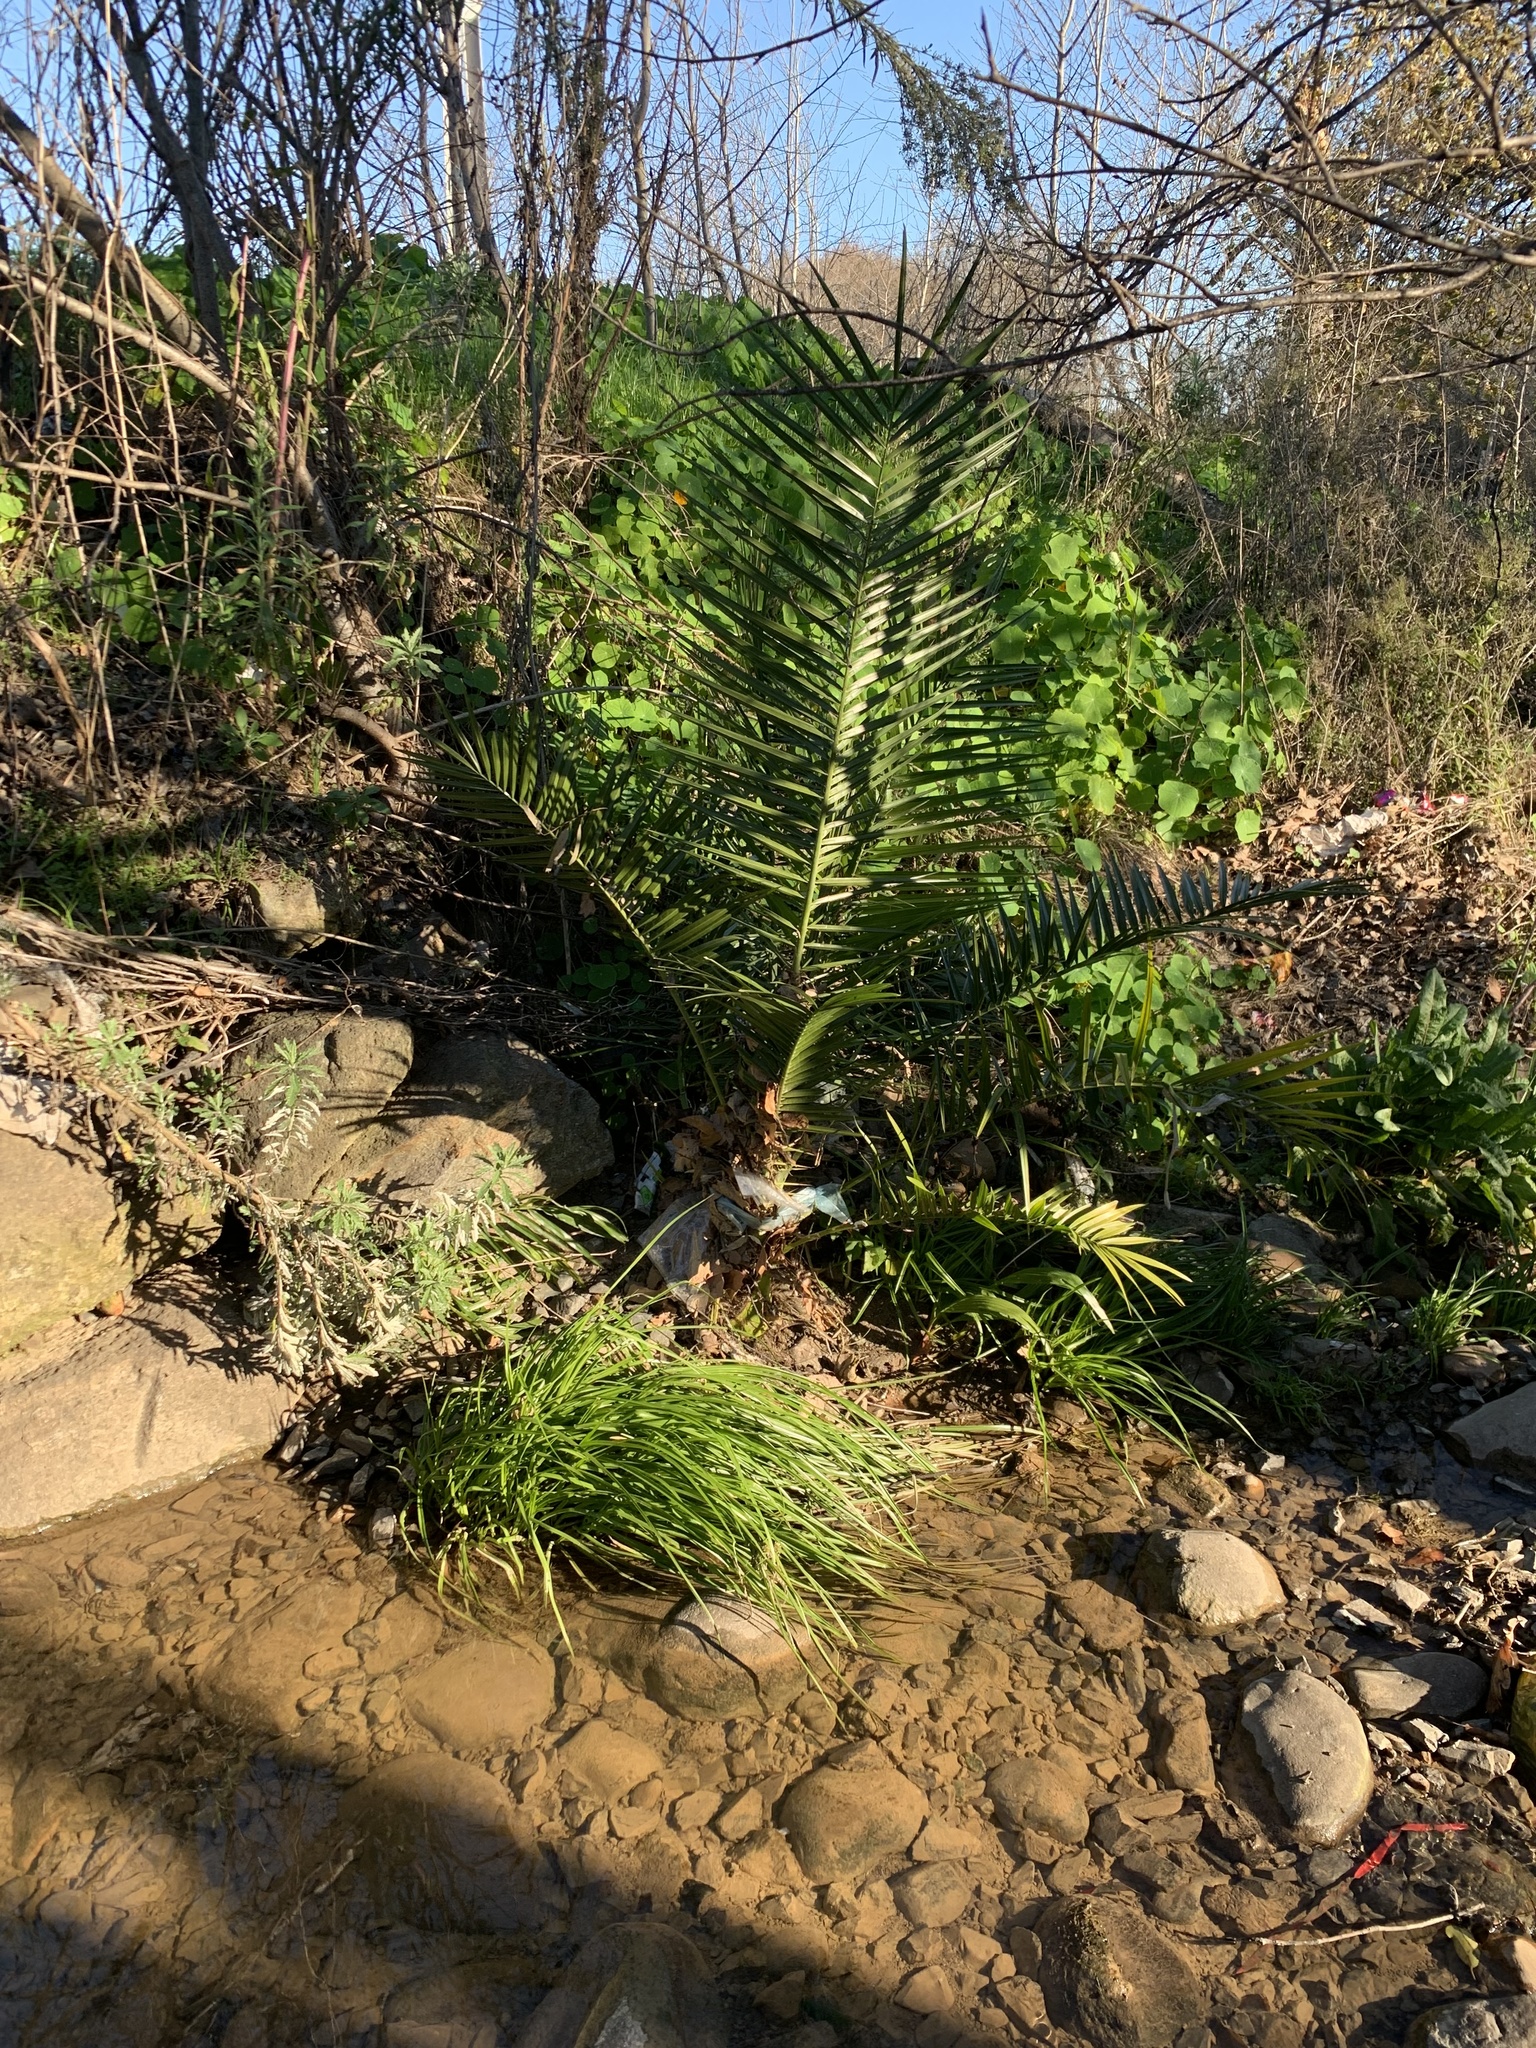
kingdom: Plantae
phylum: Tracheophyta
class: Liliopsida
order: Arecales
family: Arecaceae
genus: Phoenix
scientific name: Phoenix canariensis
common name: Canary island date palm
